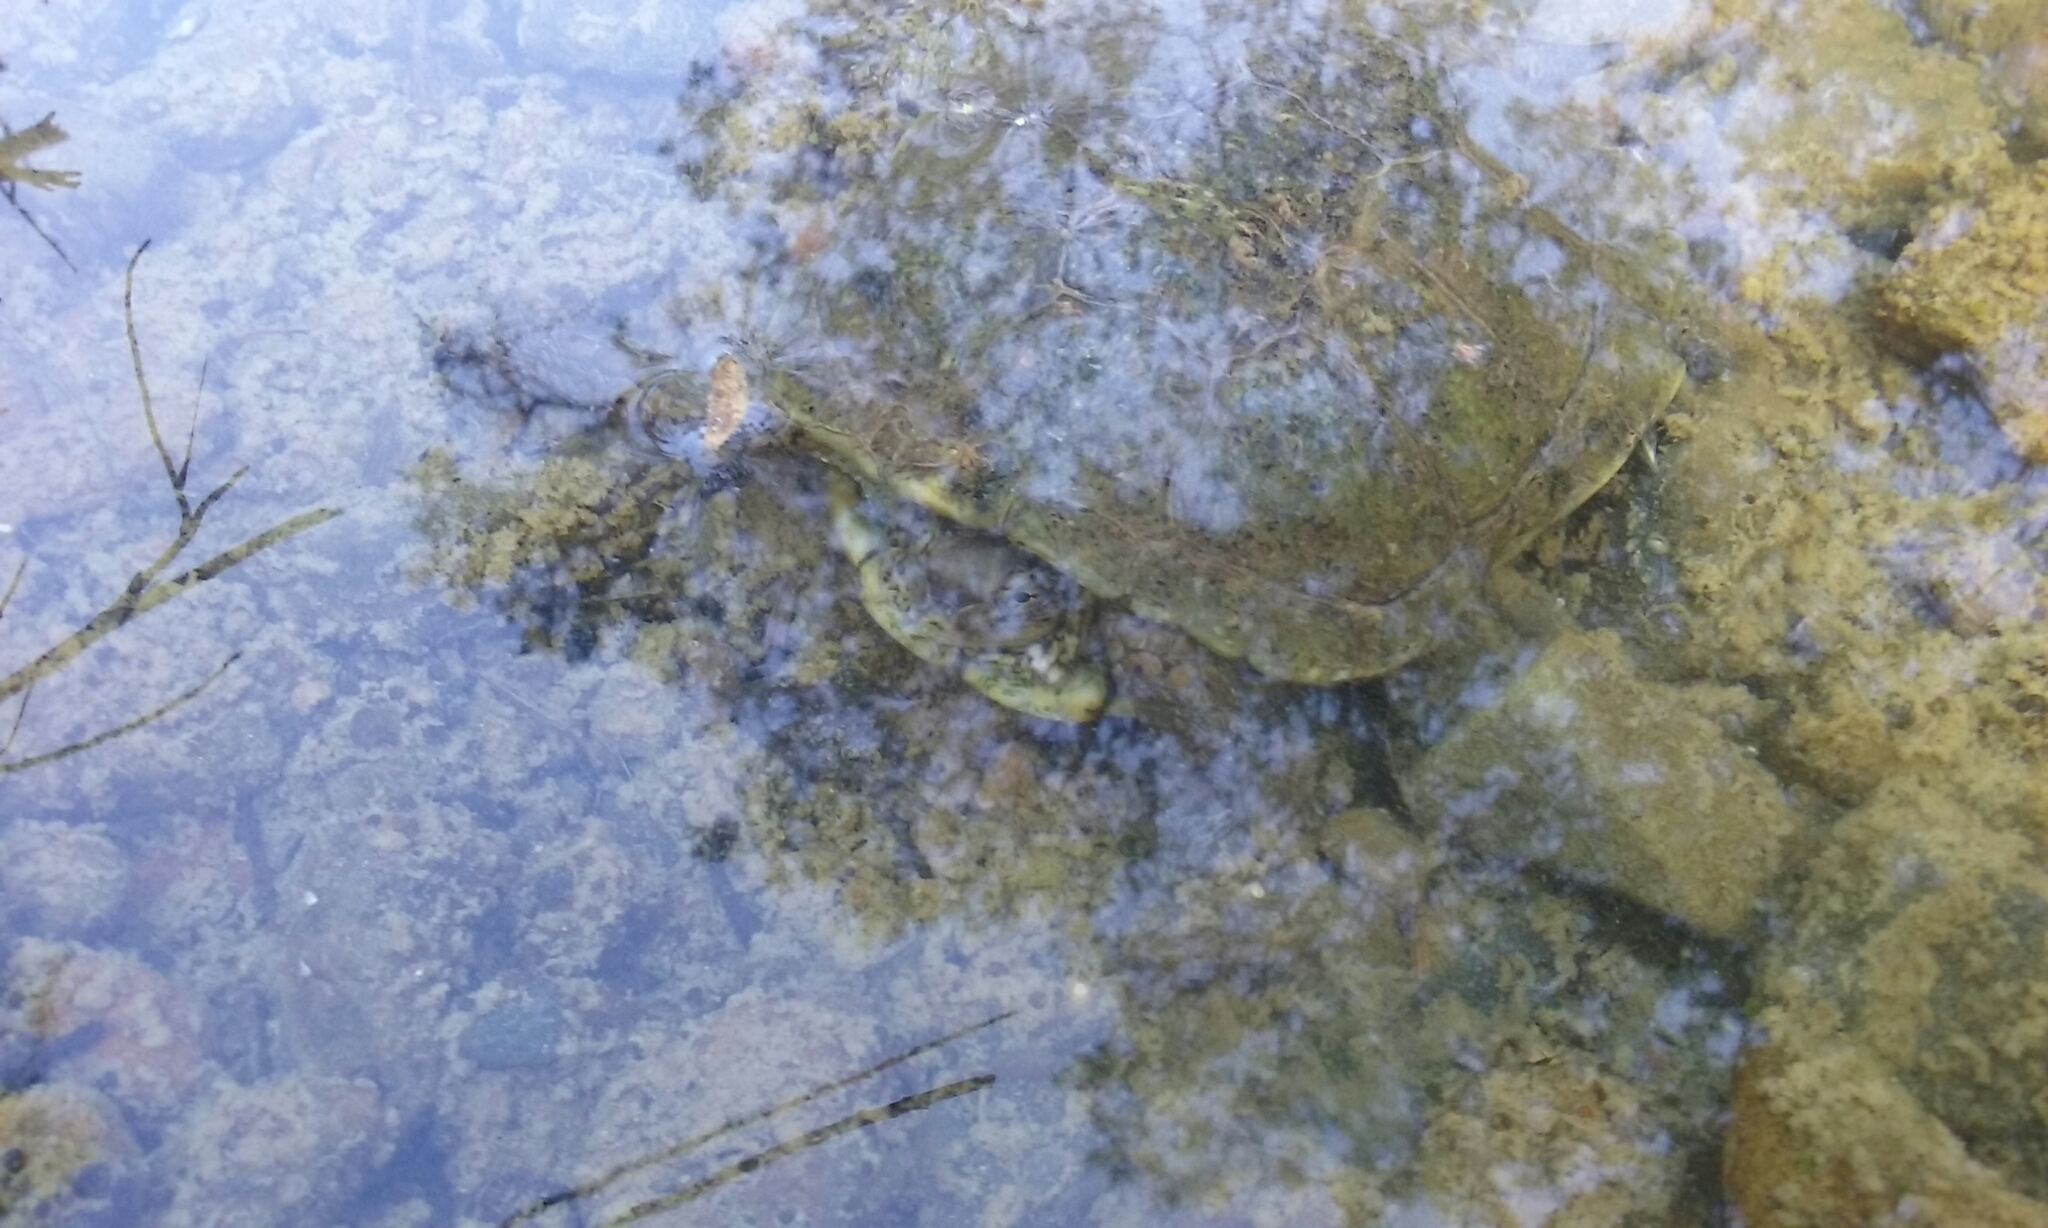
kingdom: Animalia
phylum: Chordata
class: Testudines
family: Emydidae
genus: Actinemys
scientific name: Actinemys marmorata
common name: Western pond turtle
